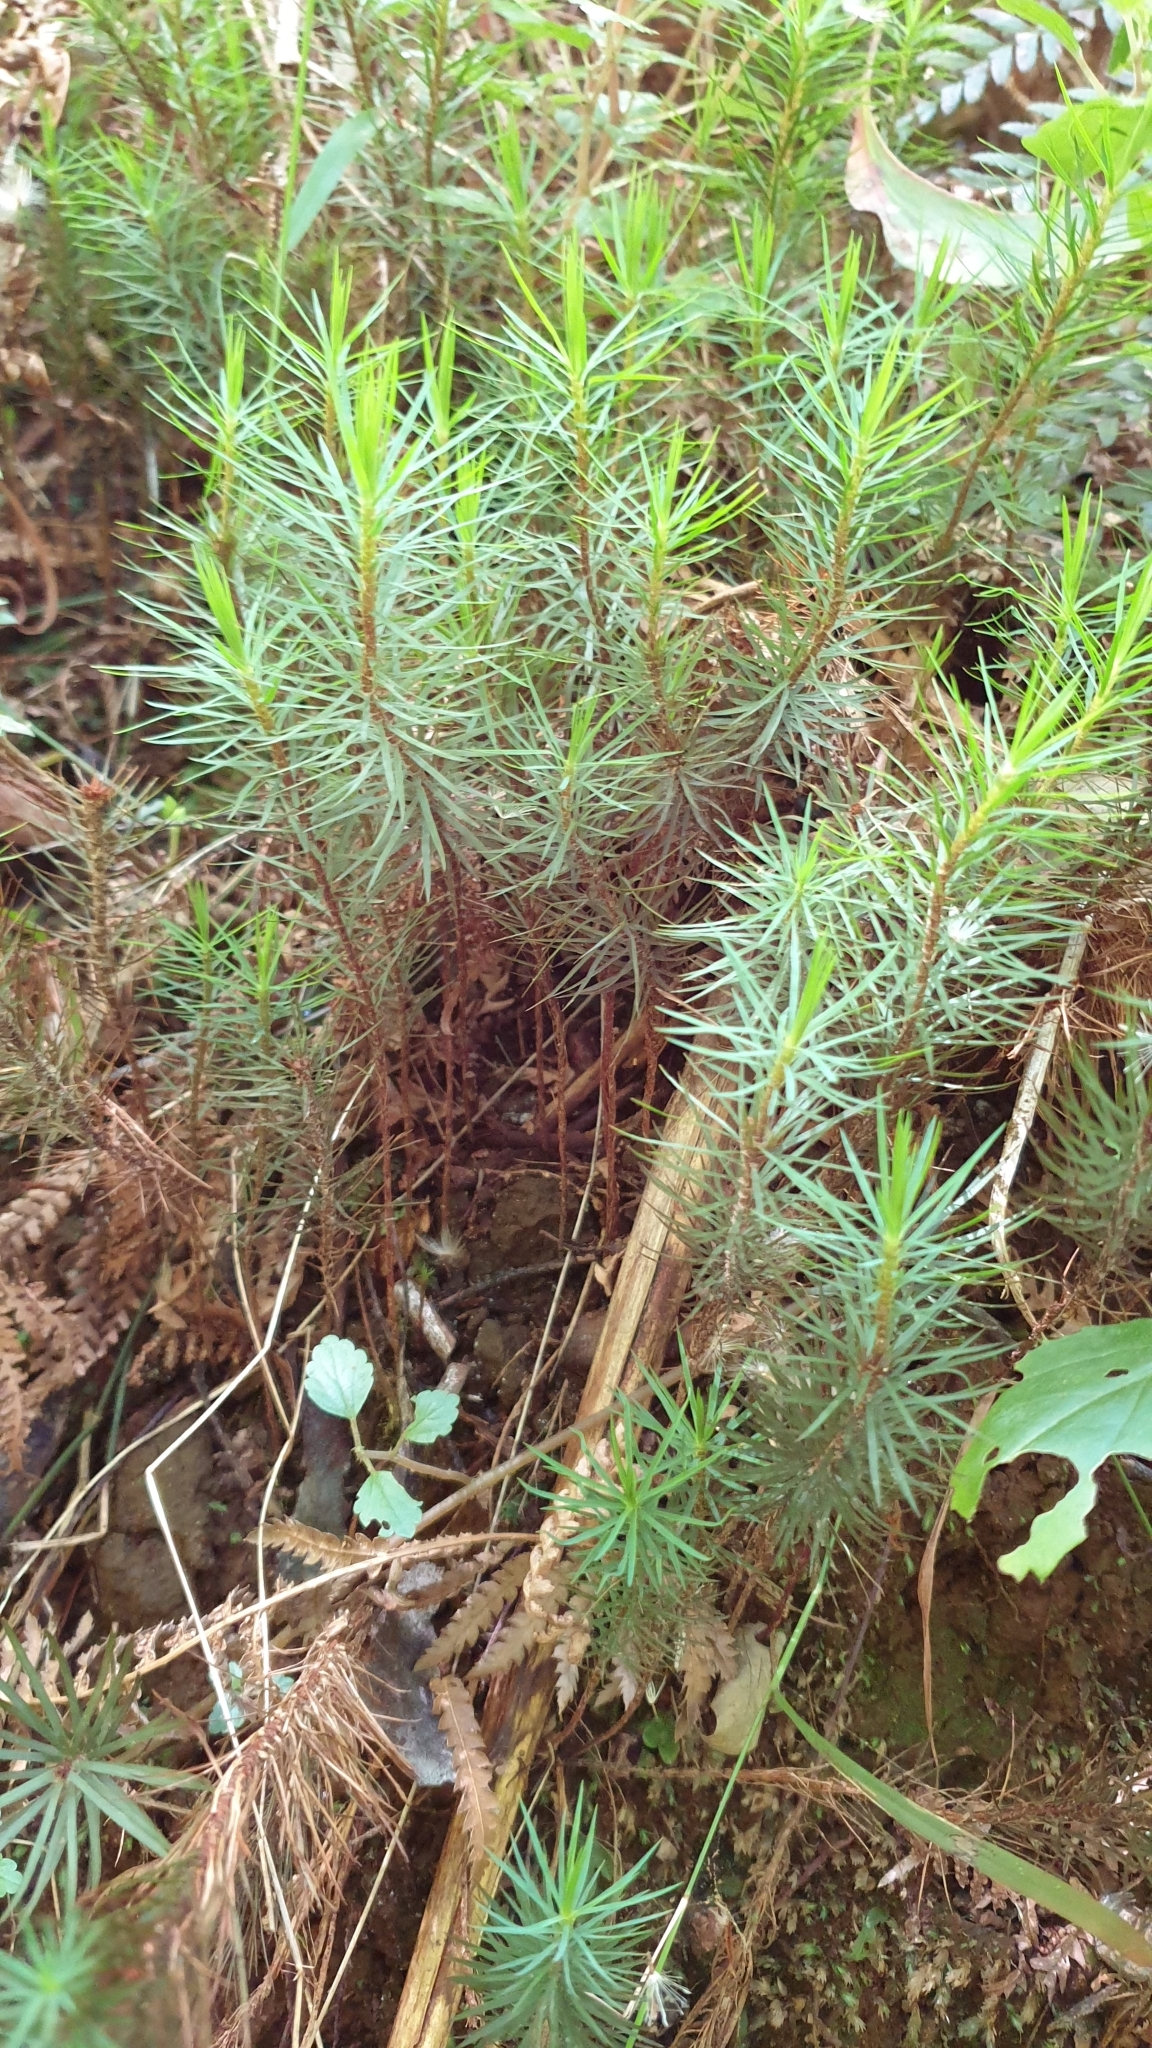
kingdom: Plantae
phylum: Bryophyta
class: Polytrichopsida
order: Polytrichales
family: Polytrichaceae
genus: Dawsonia
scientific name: Dawsonia superba
